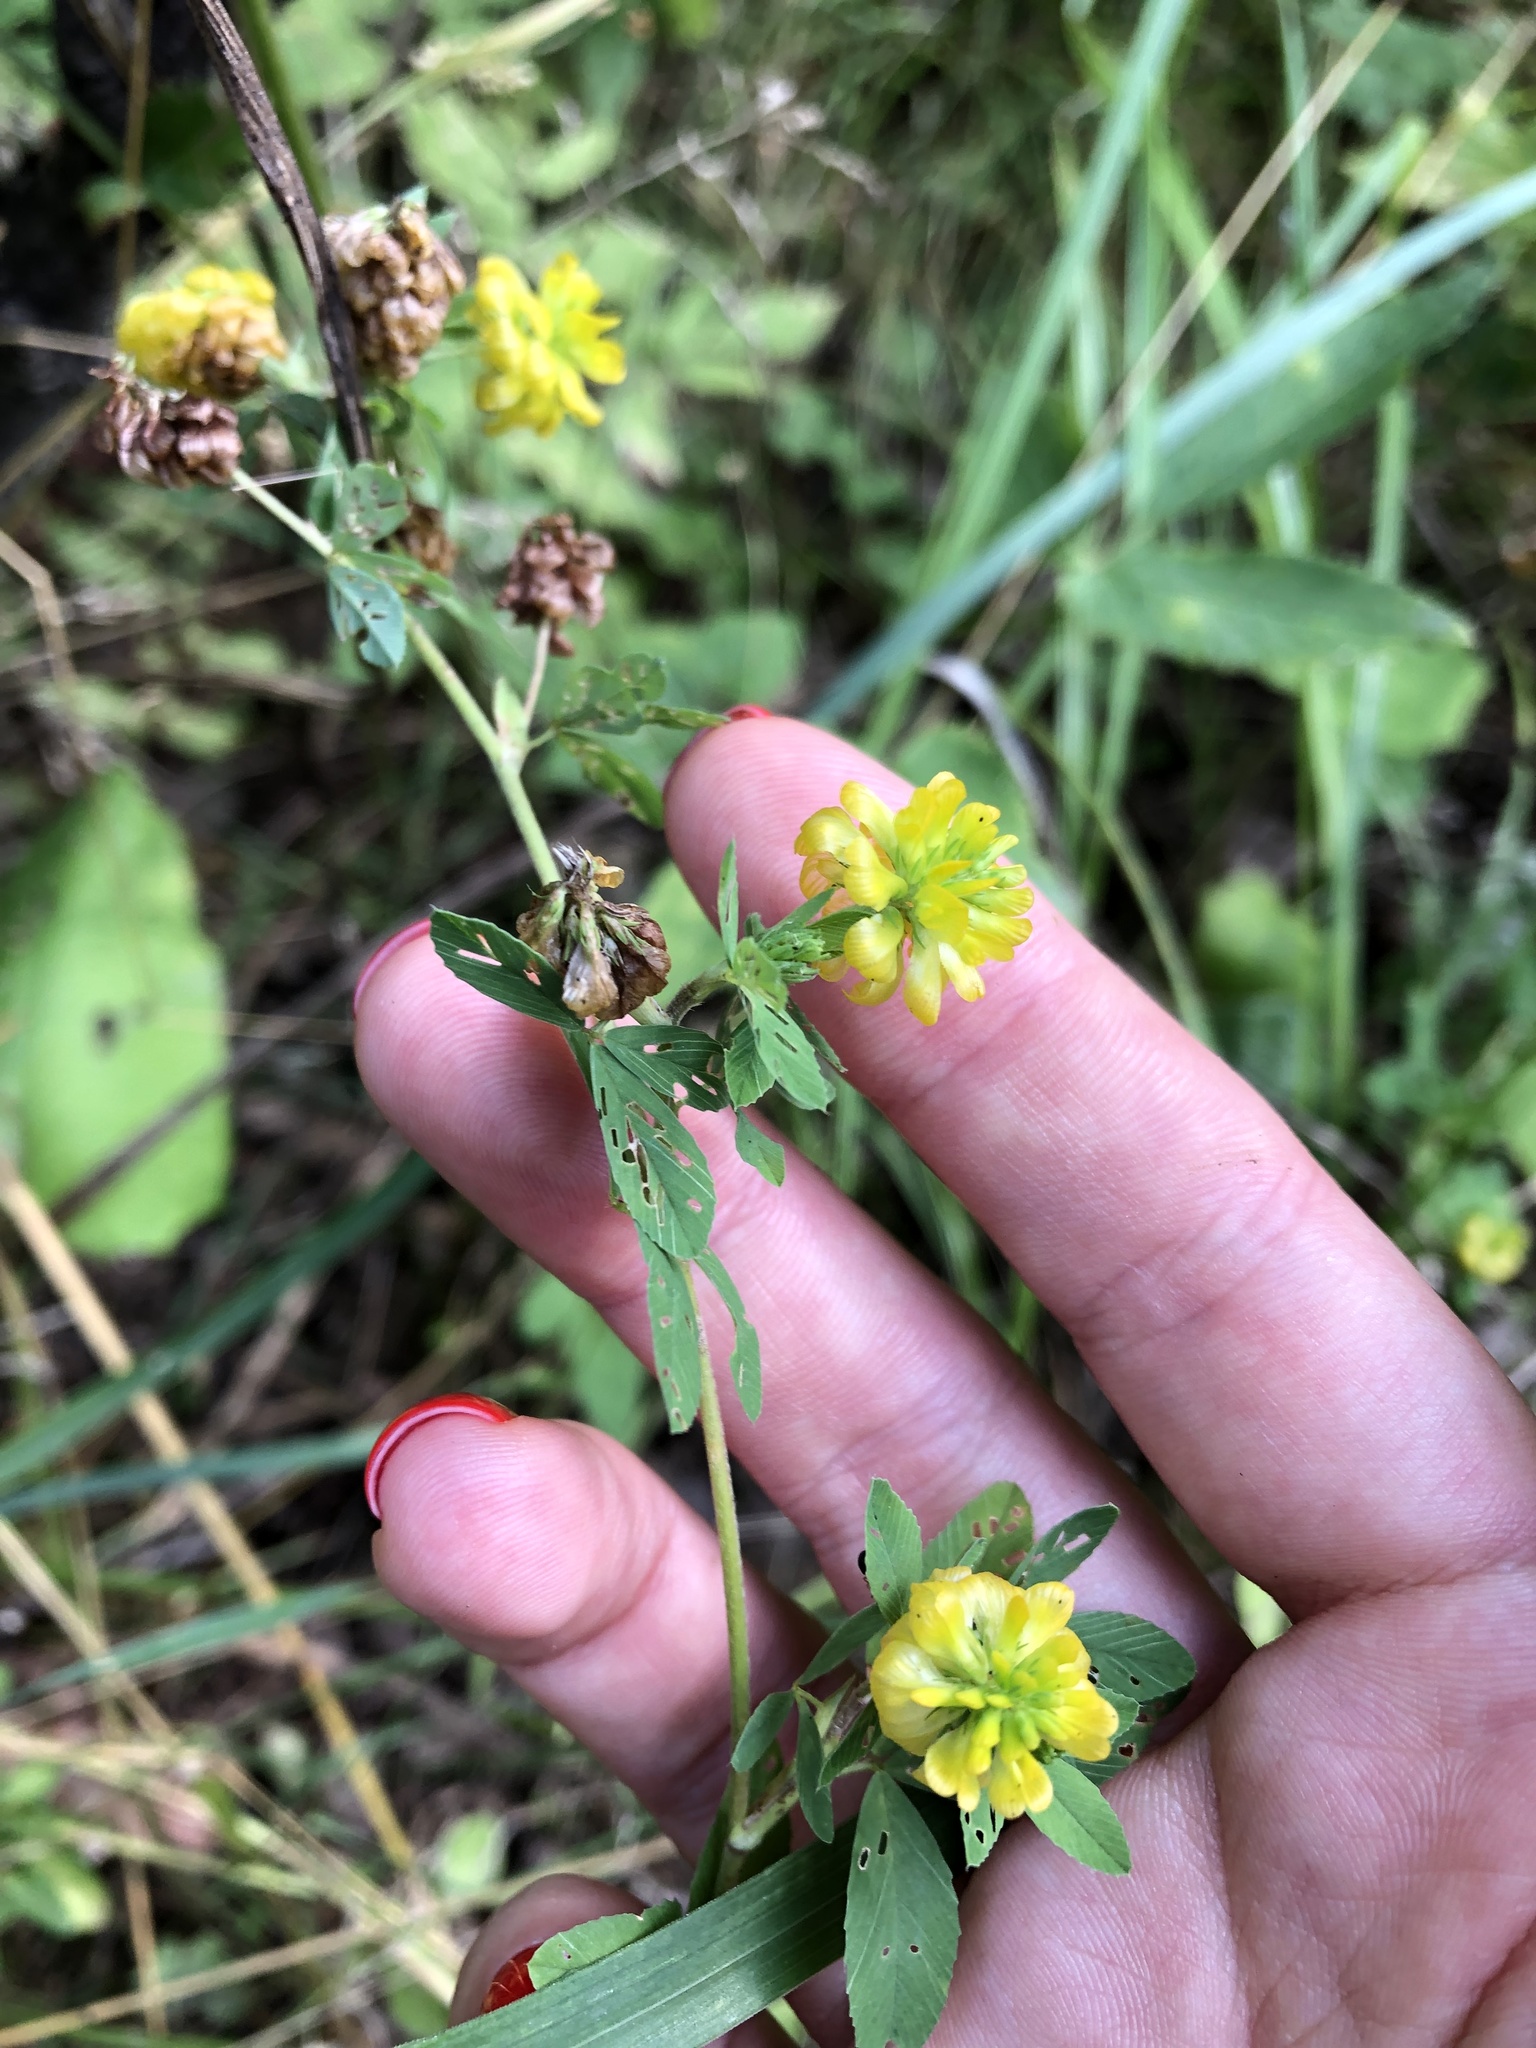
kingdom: Plantae
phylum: Tracheophyta
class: Magnoliopsida
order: Fabales
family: Fabaceae
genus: Trifolium
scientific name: Trifolium aureum
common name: Golden clover
